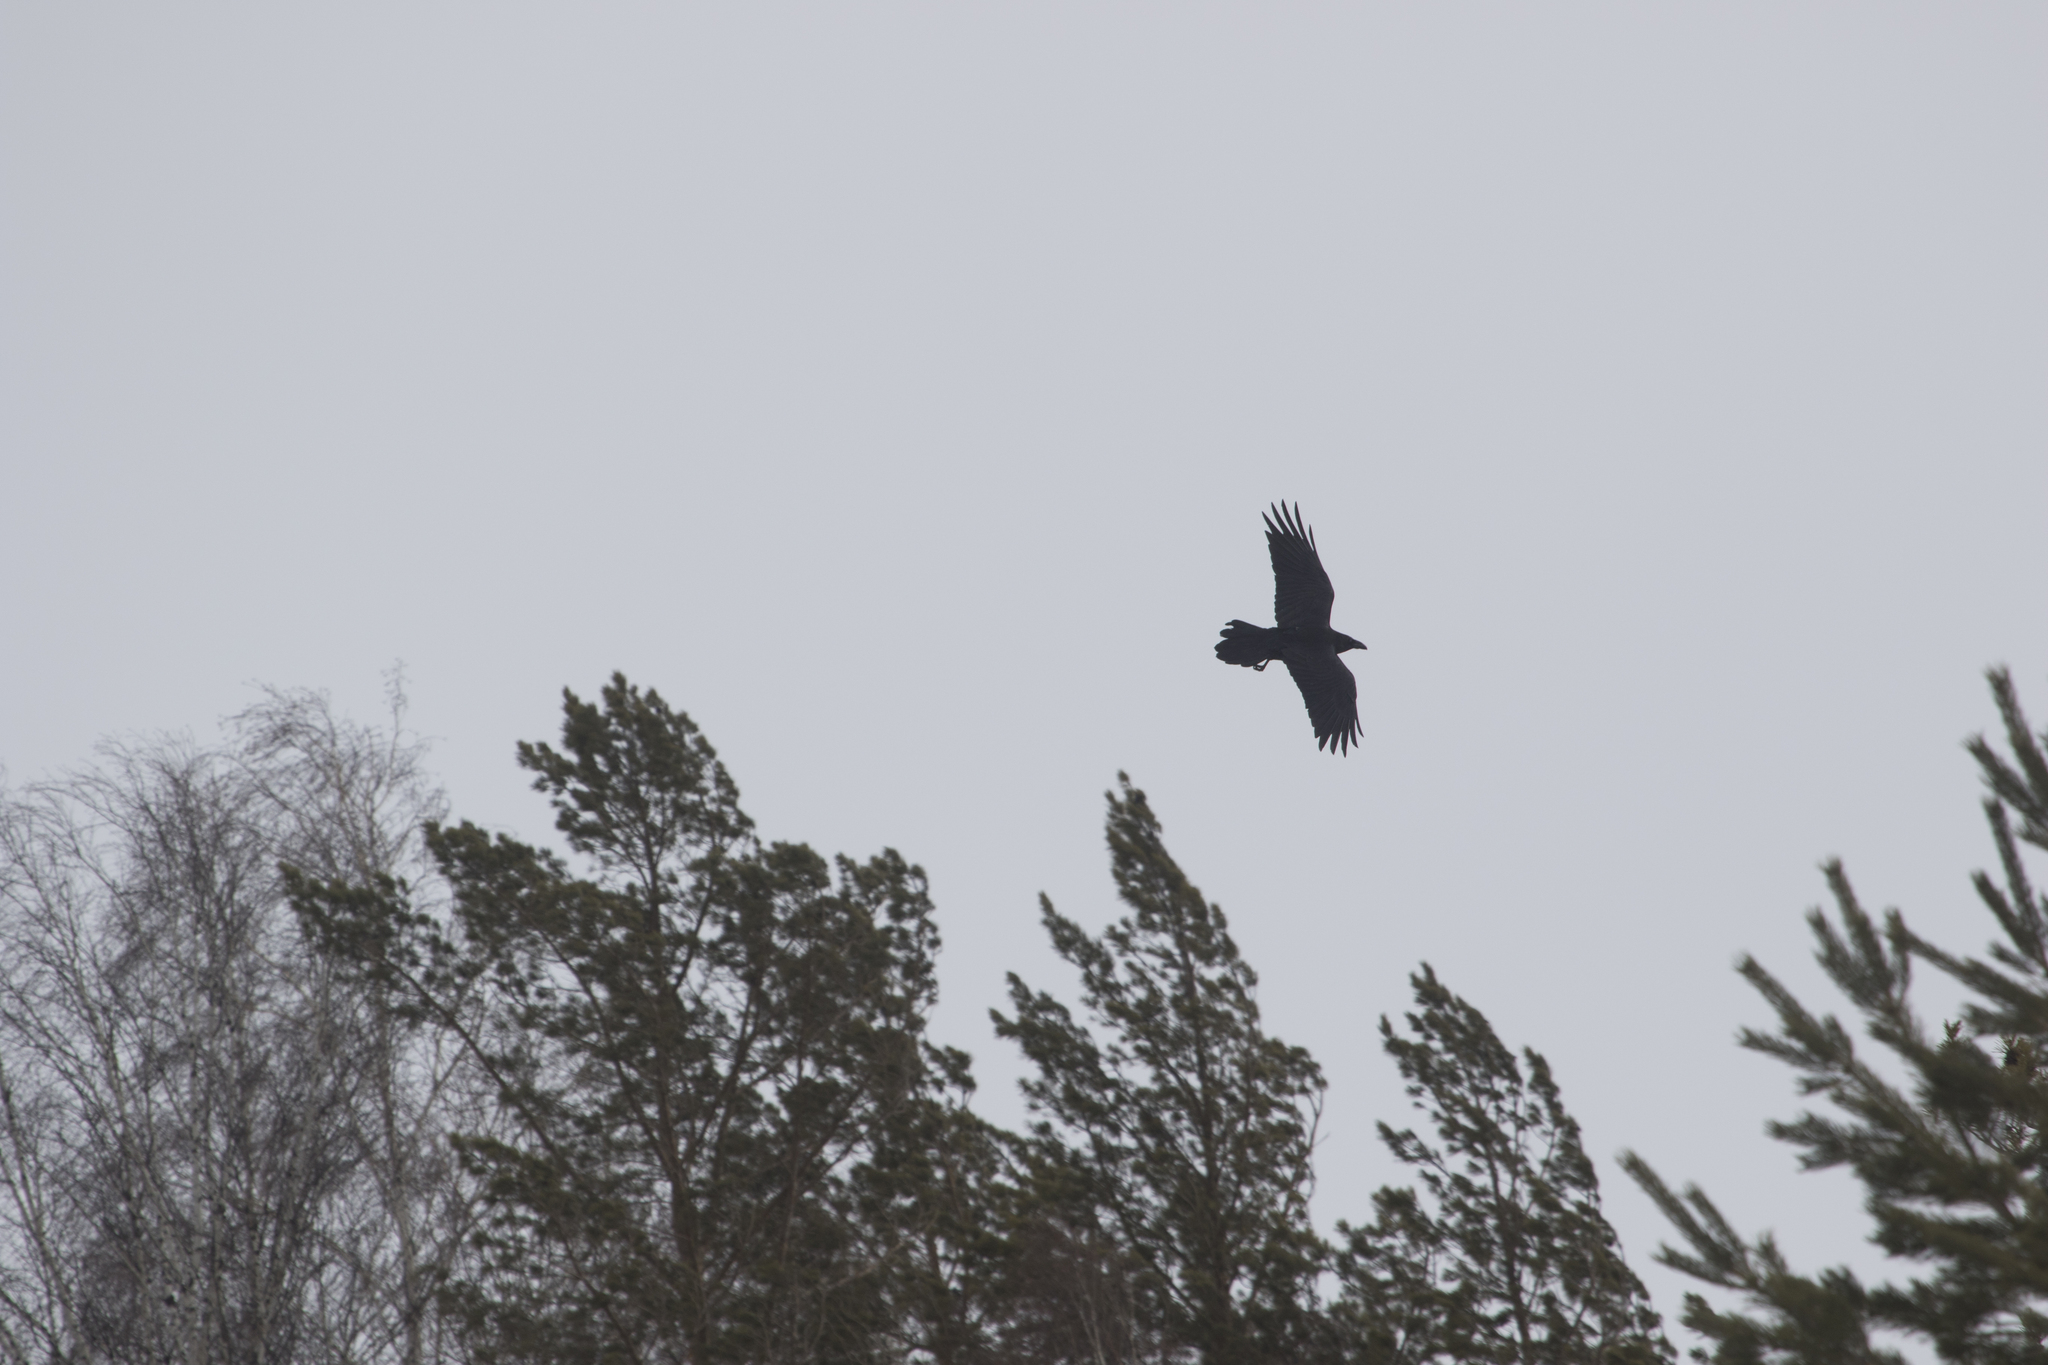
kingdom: Animalia
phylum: Chordata
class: Aves
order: Passeriformes
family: Corvidae
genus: Corvus
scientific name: Corvus corax
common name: Common raven
